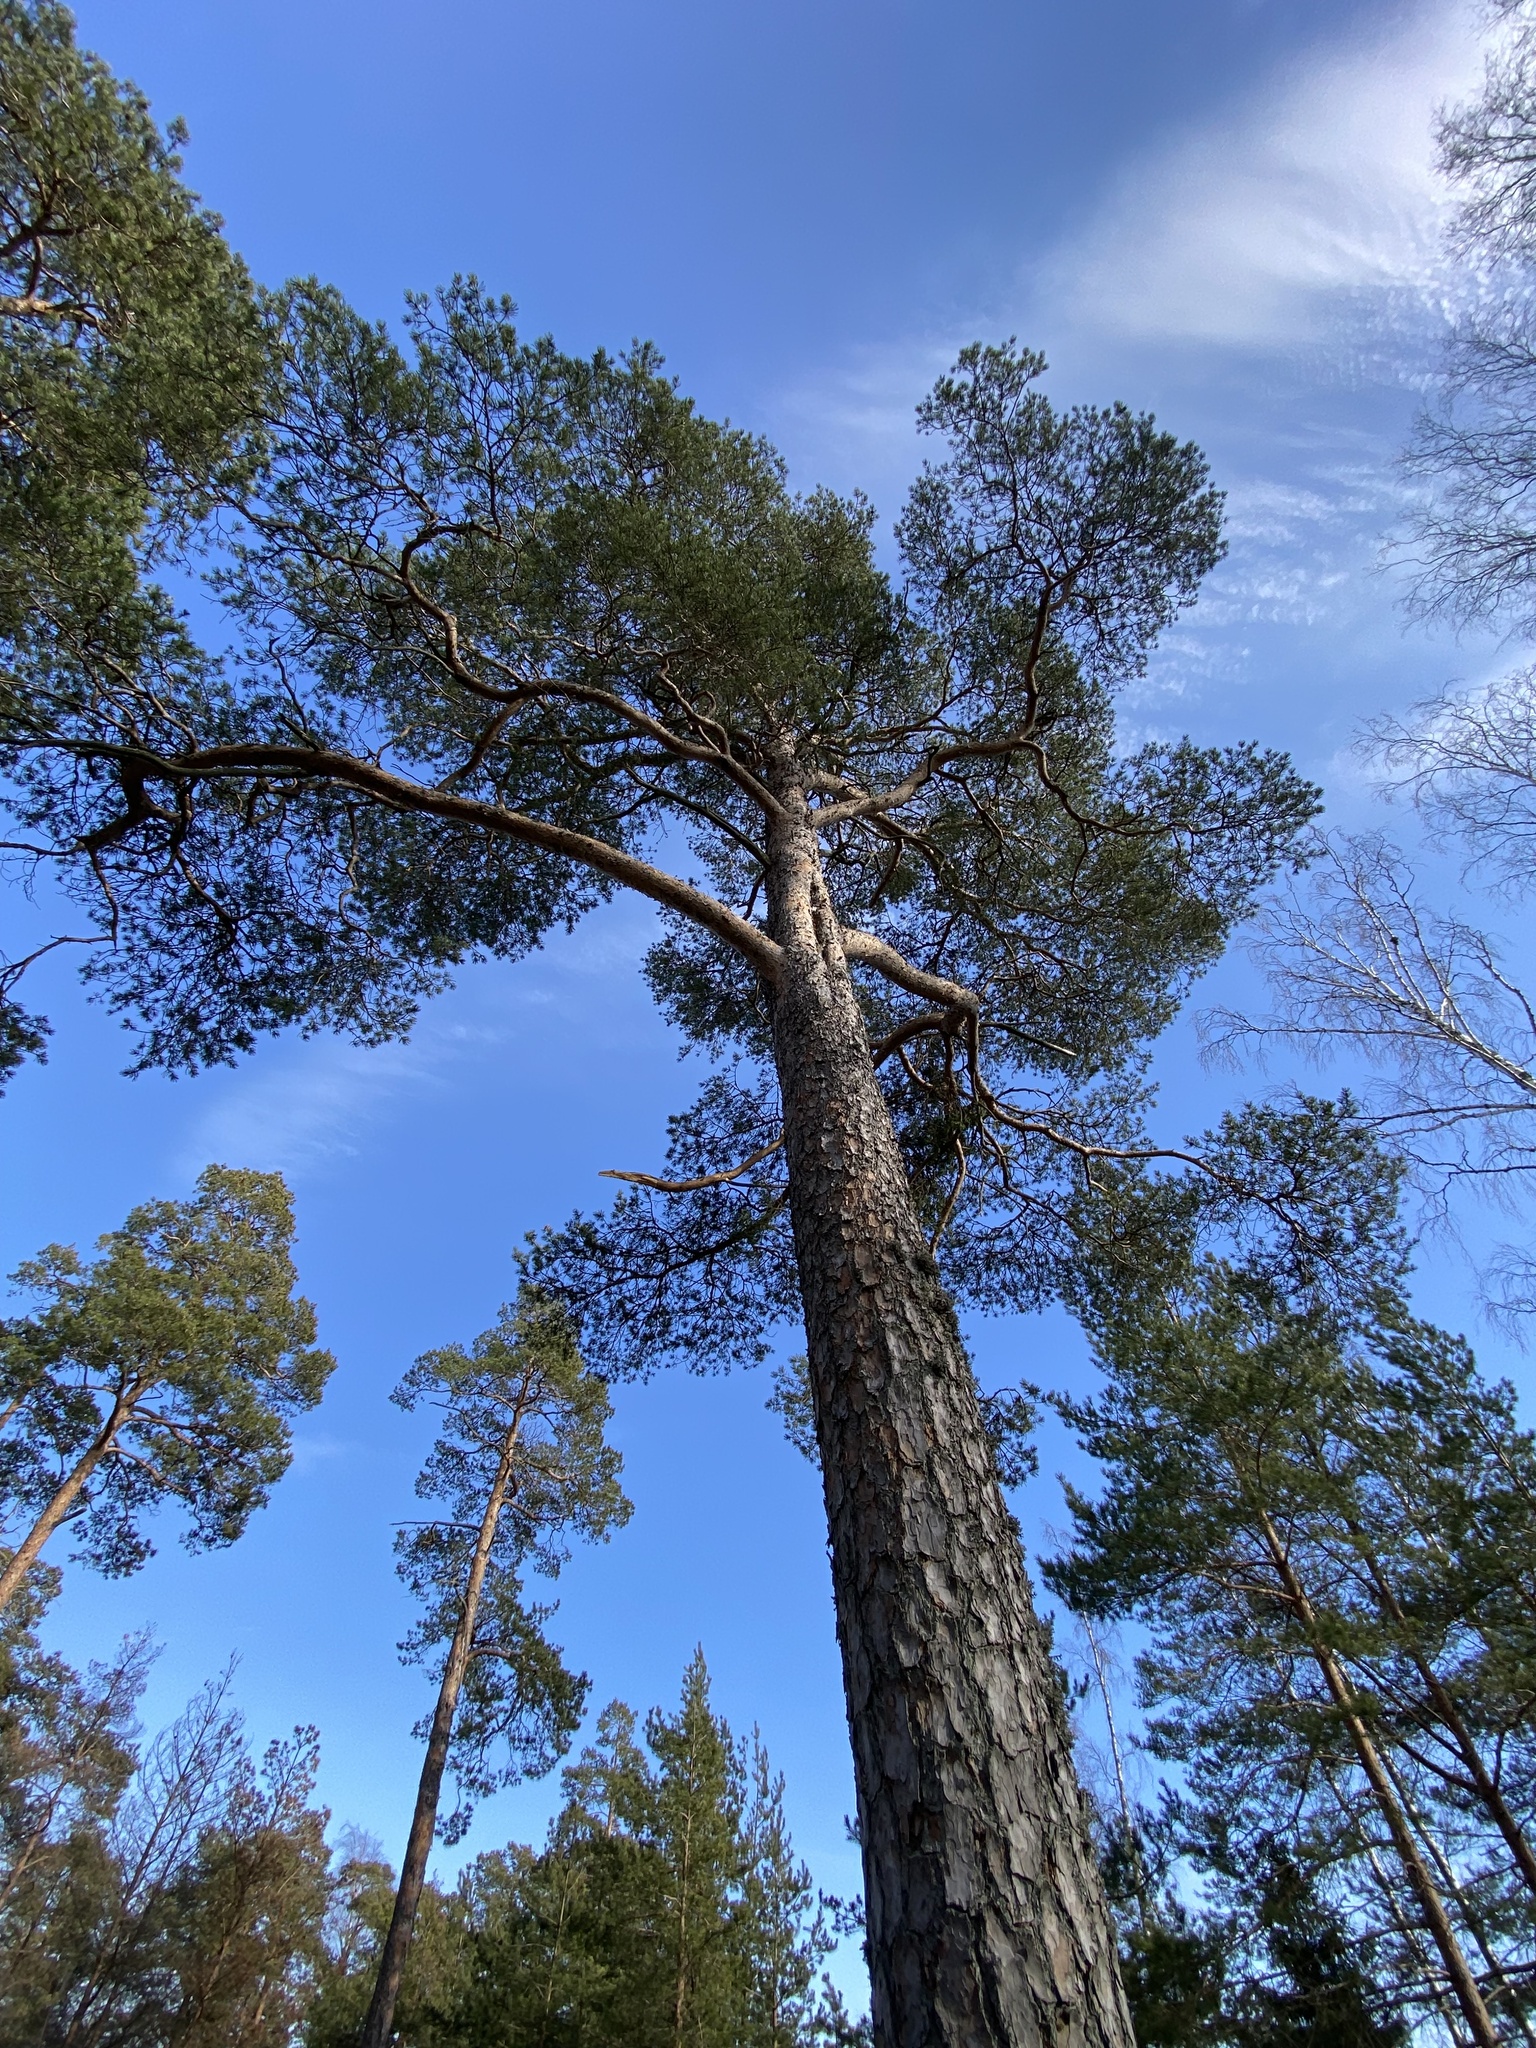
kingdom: Plantae
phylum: Tracheophyta
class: Pinopsida
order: Pinales
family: Pinaceae
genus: Pinus
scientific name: Pinus sylvestris
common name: Scots pine
